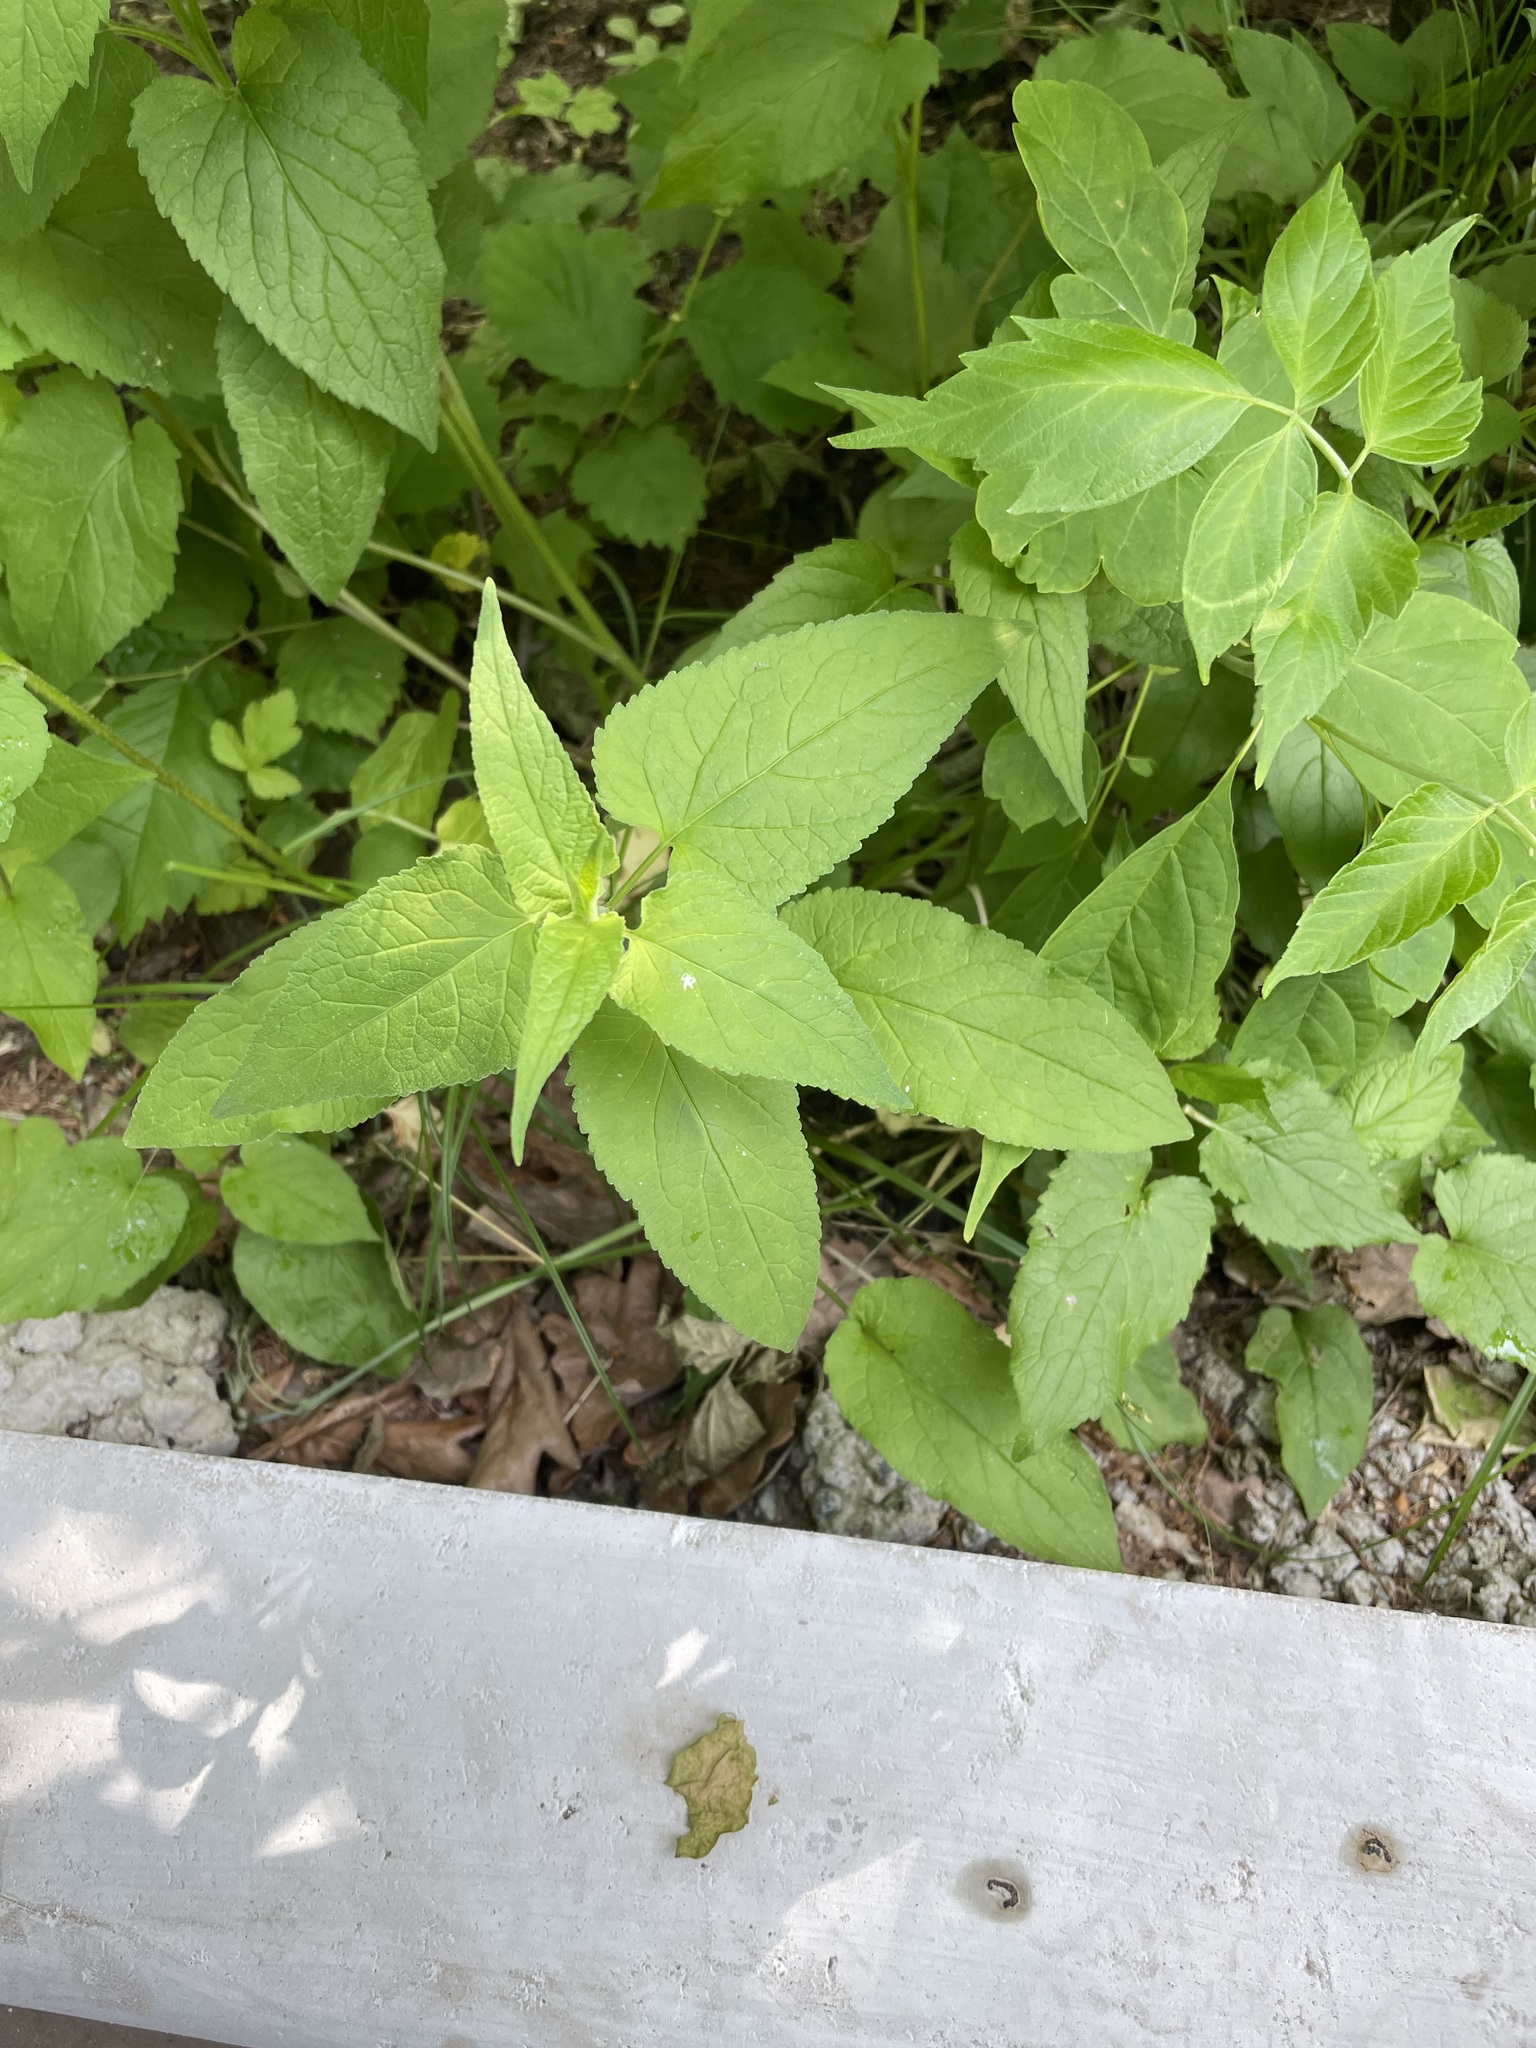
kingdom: Plantae
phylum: Tracheophyta
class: Magnoliopsida
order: Asterales
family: Campanulaceae
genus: Campanula
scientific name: Campanula rapunculoides
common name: Creeping bellflower
